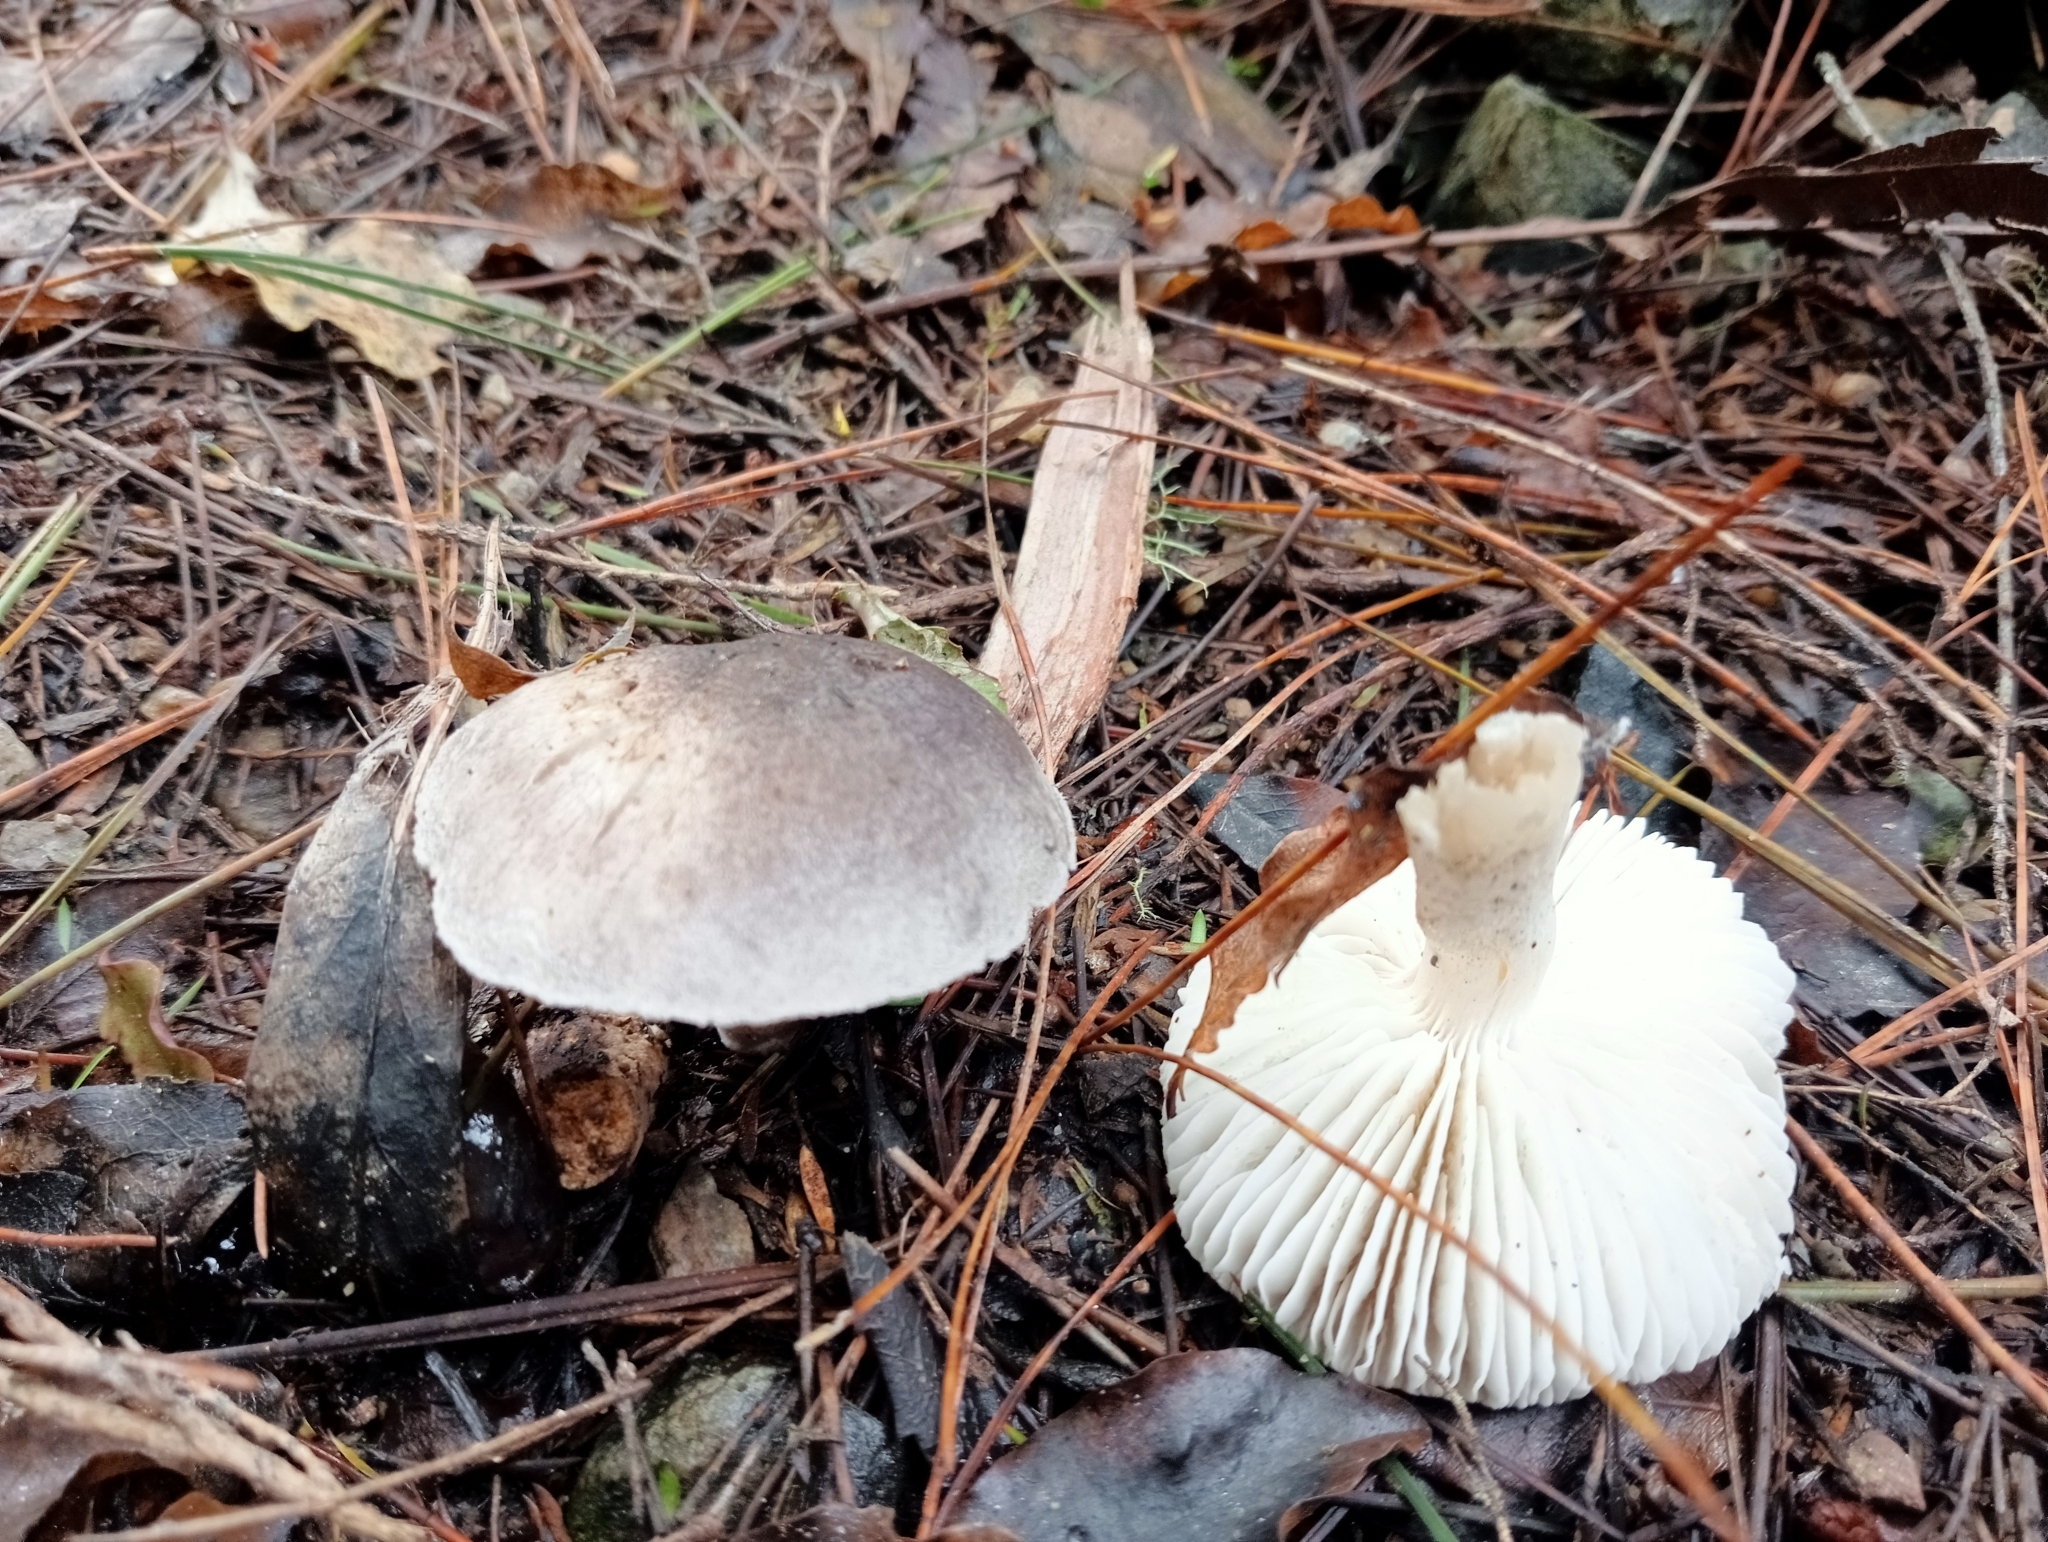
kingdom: Fungi
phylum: Basidiomycota
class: Agaricomycetes
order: Agaricales
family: Tricholomataceae
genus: Tricholoma
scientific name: Tricholoma terreum
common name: Grey knight
